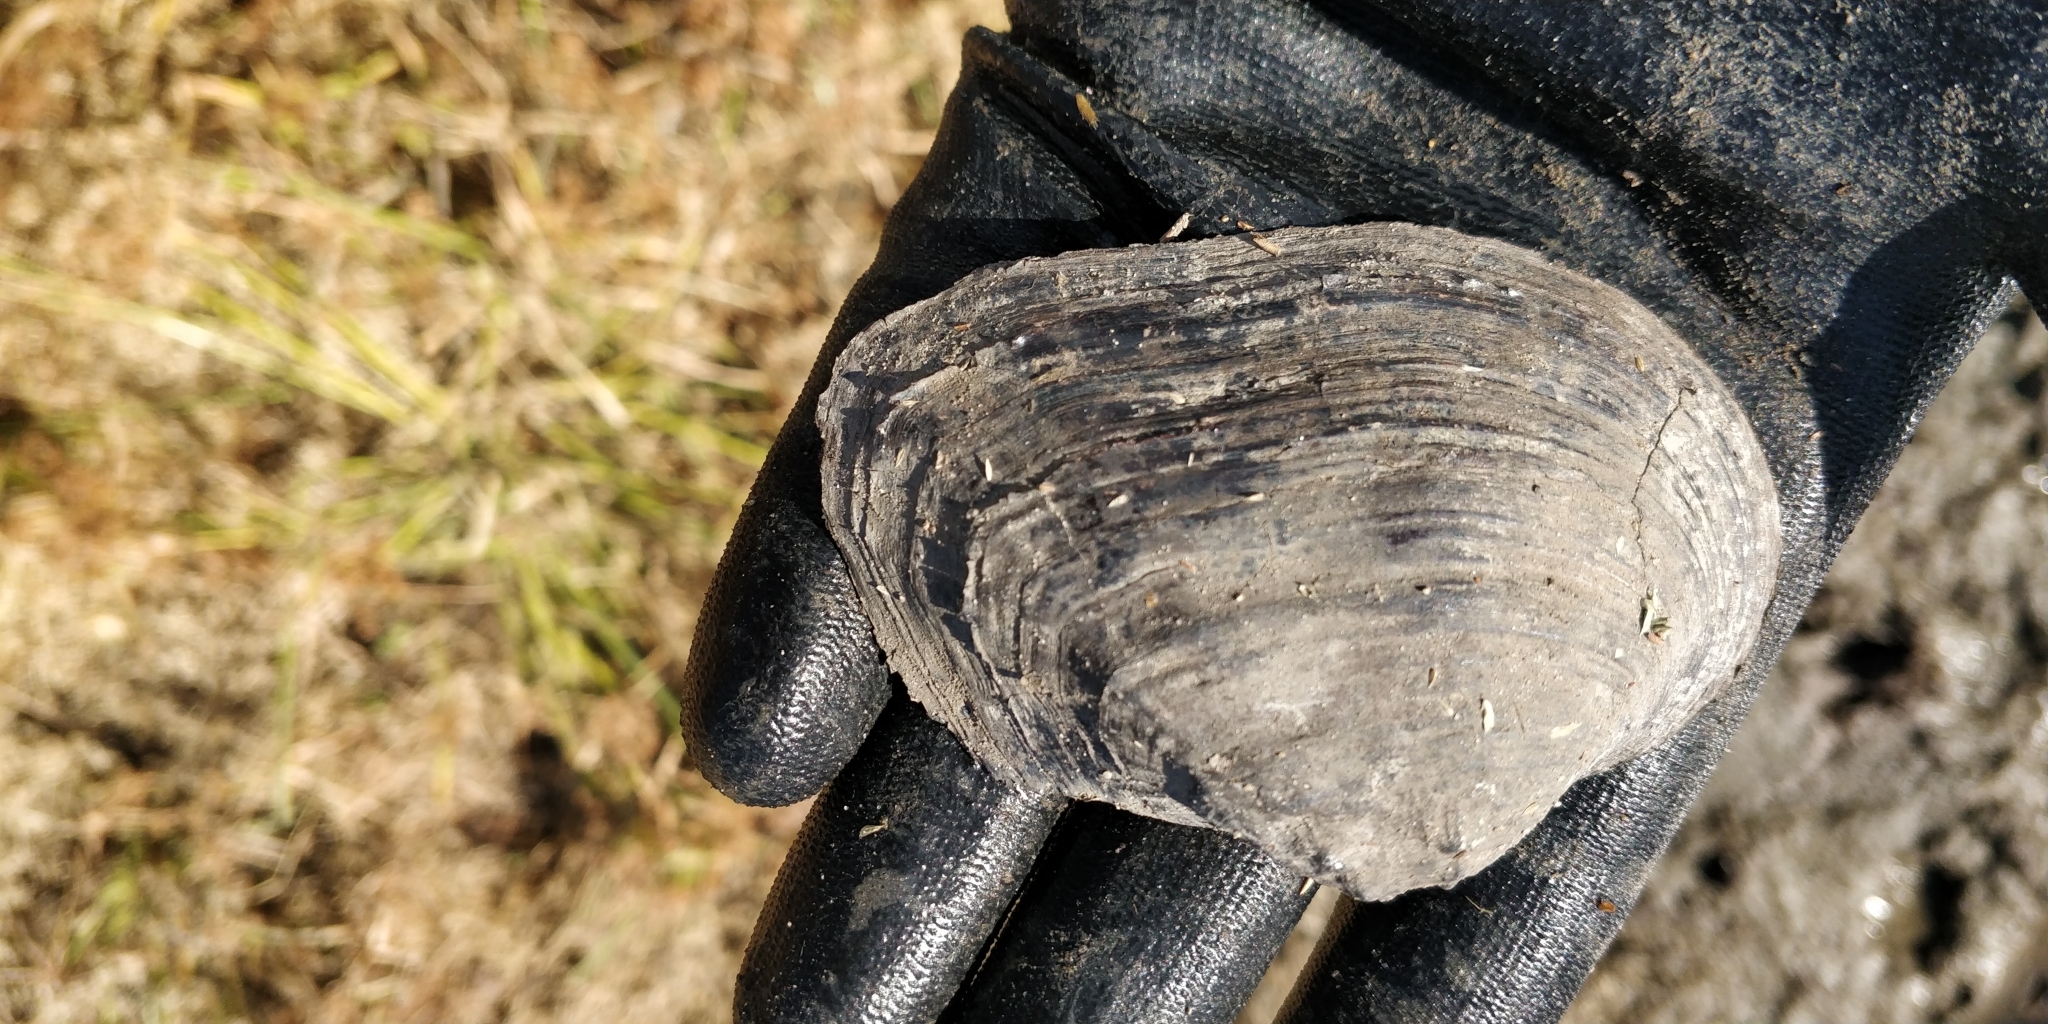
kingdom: Animalia
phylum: Mollusca
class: Bivalvia
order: Unionida
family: Unionidae
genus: Arcidens
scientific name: Arcidens confragosus
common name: Rock pocketbook
